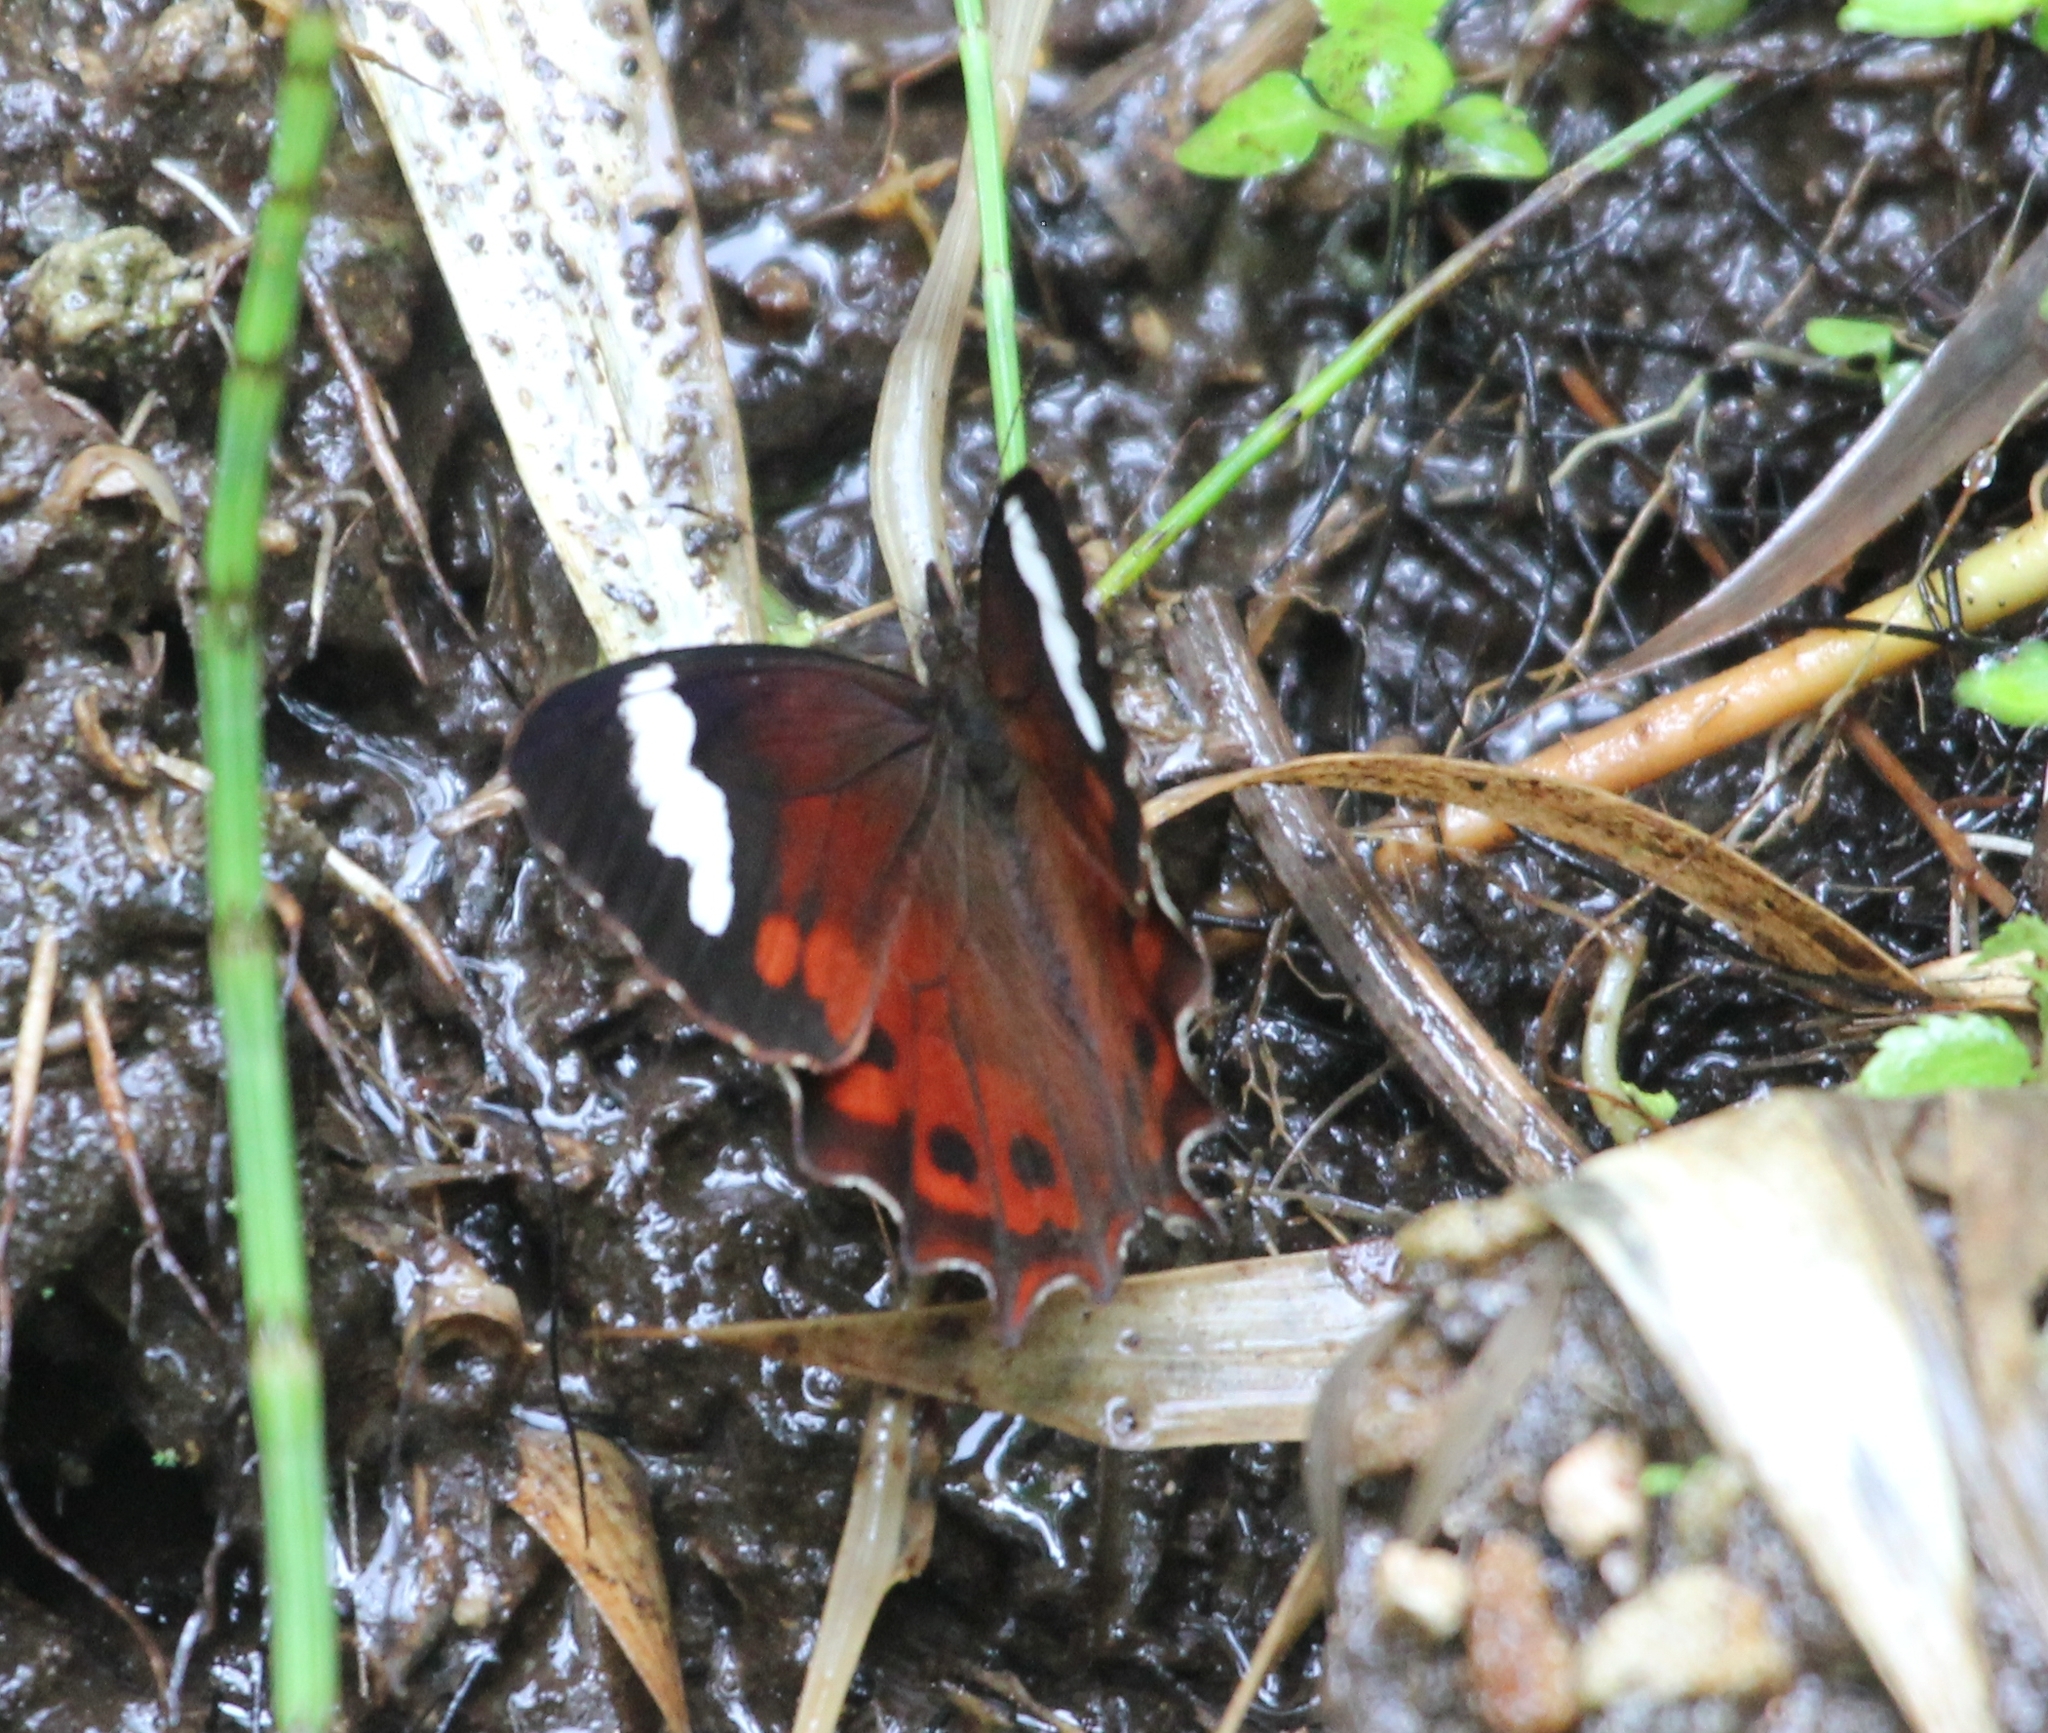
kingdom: Animalia
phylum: Arthropoda
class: Insecta
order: Lepidoptera
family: Nymphalidae
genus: Lasiophila
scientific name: Lasiophila prosymna
